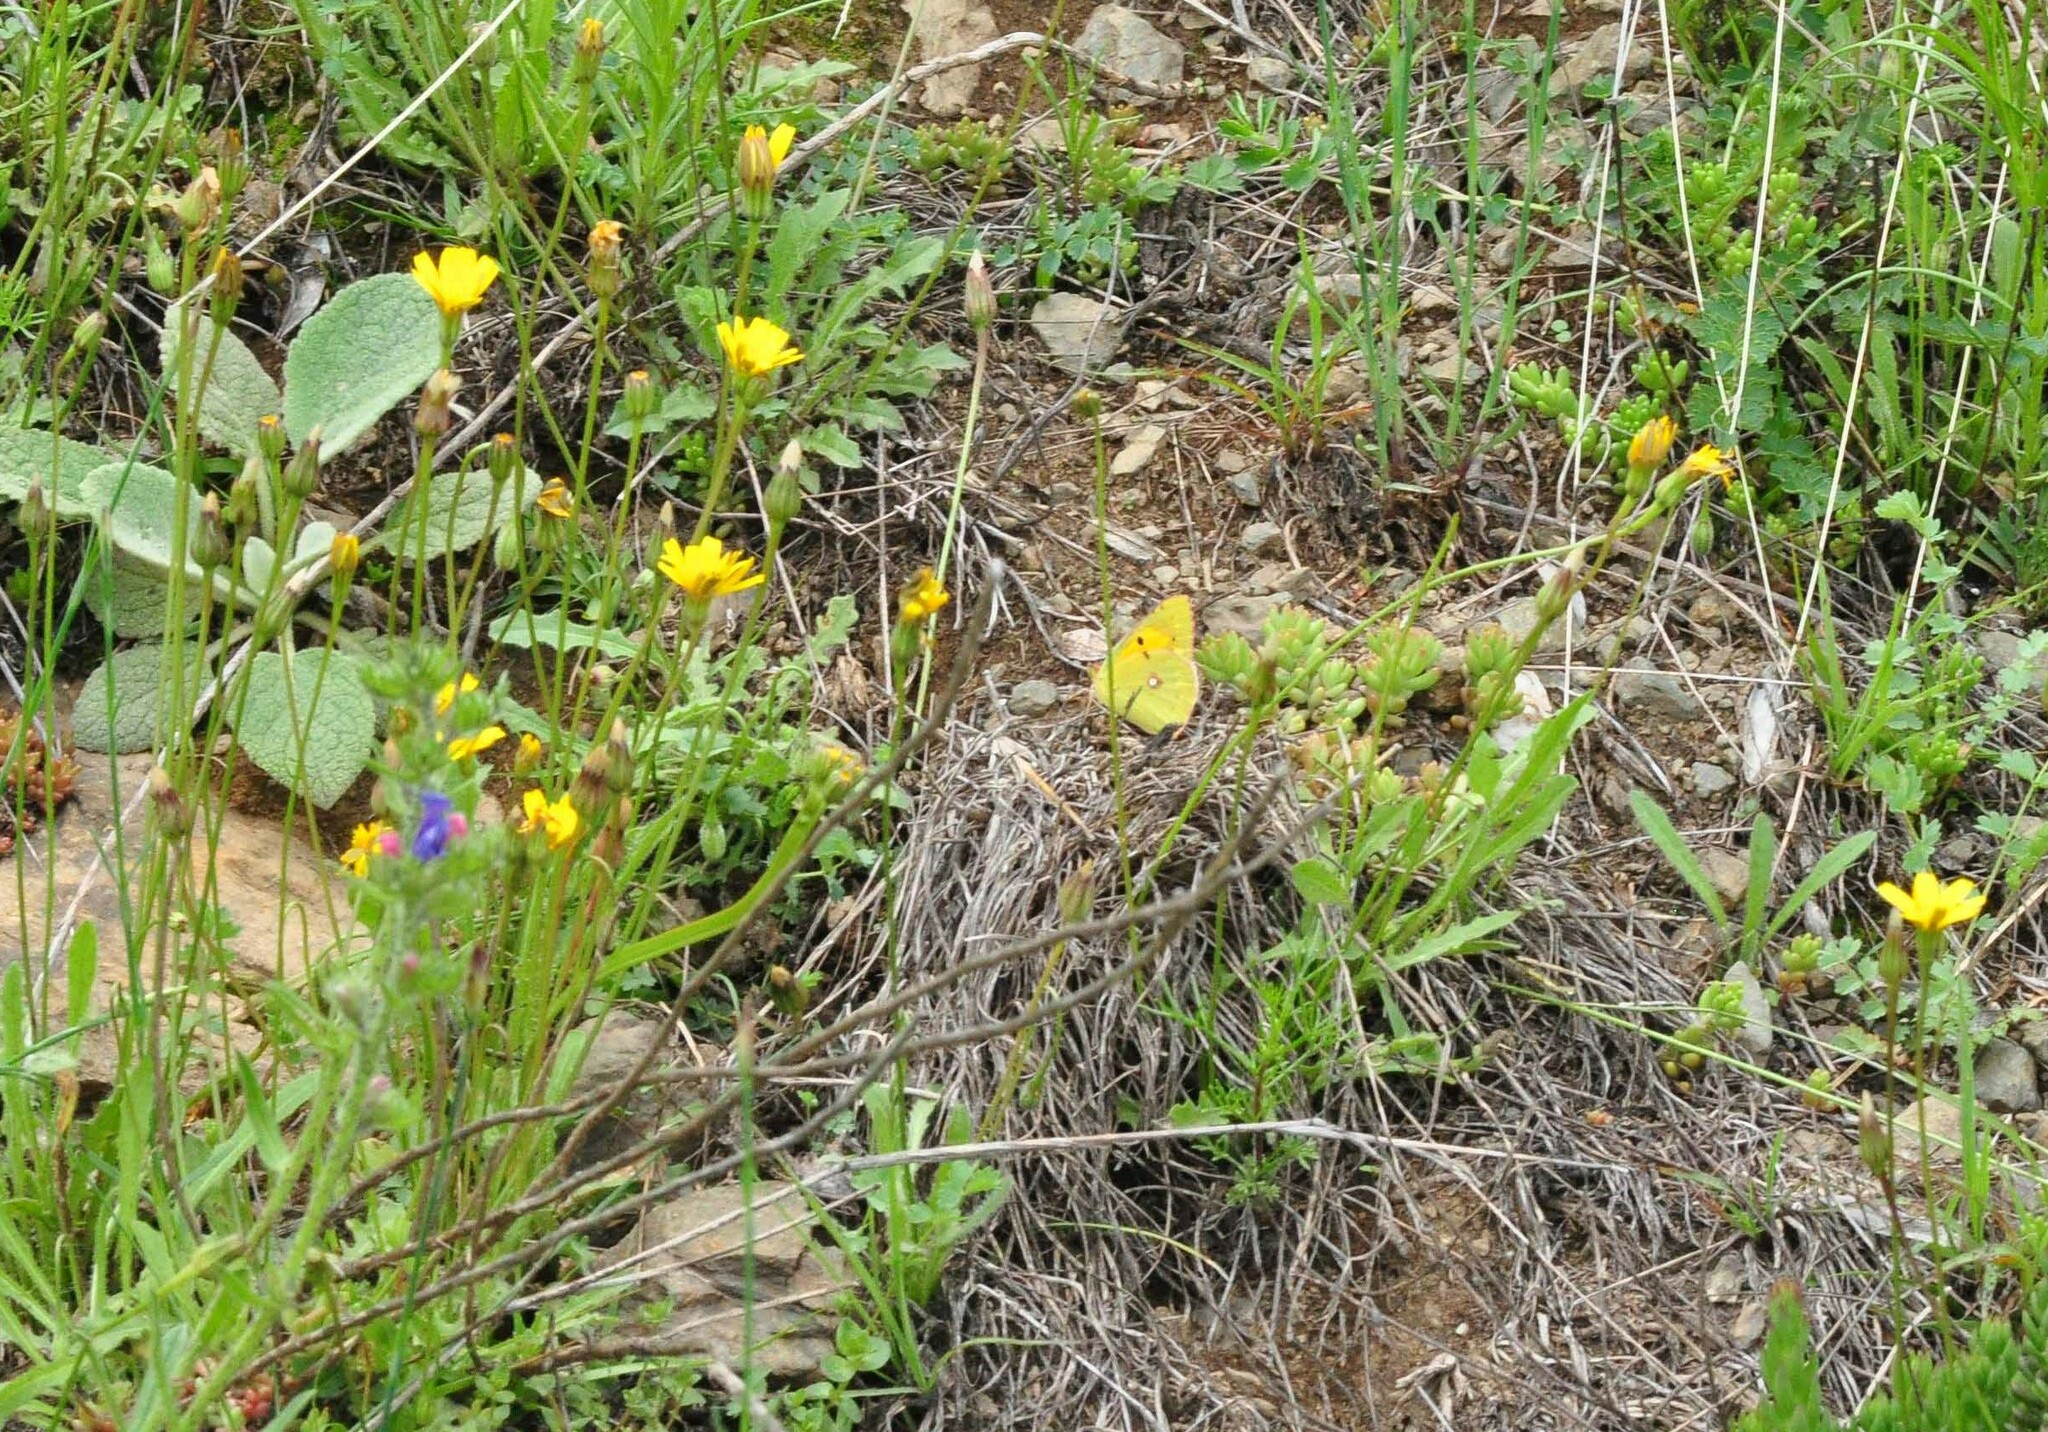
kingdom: Animalia
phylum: Arthropoda
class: Insecta
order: Lepidoptera
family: Pieridae
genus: Colias
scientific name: Colias croceus
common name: Clouded yellow
